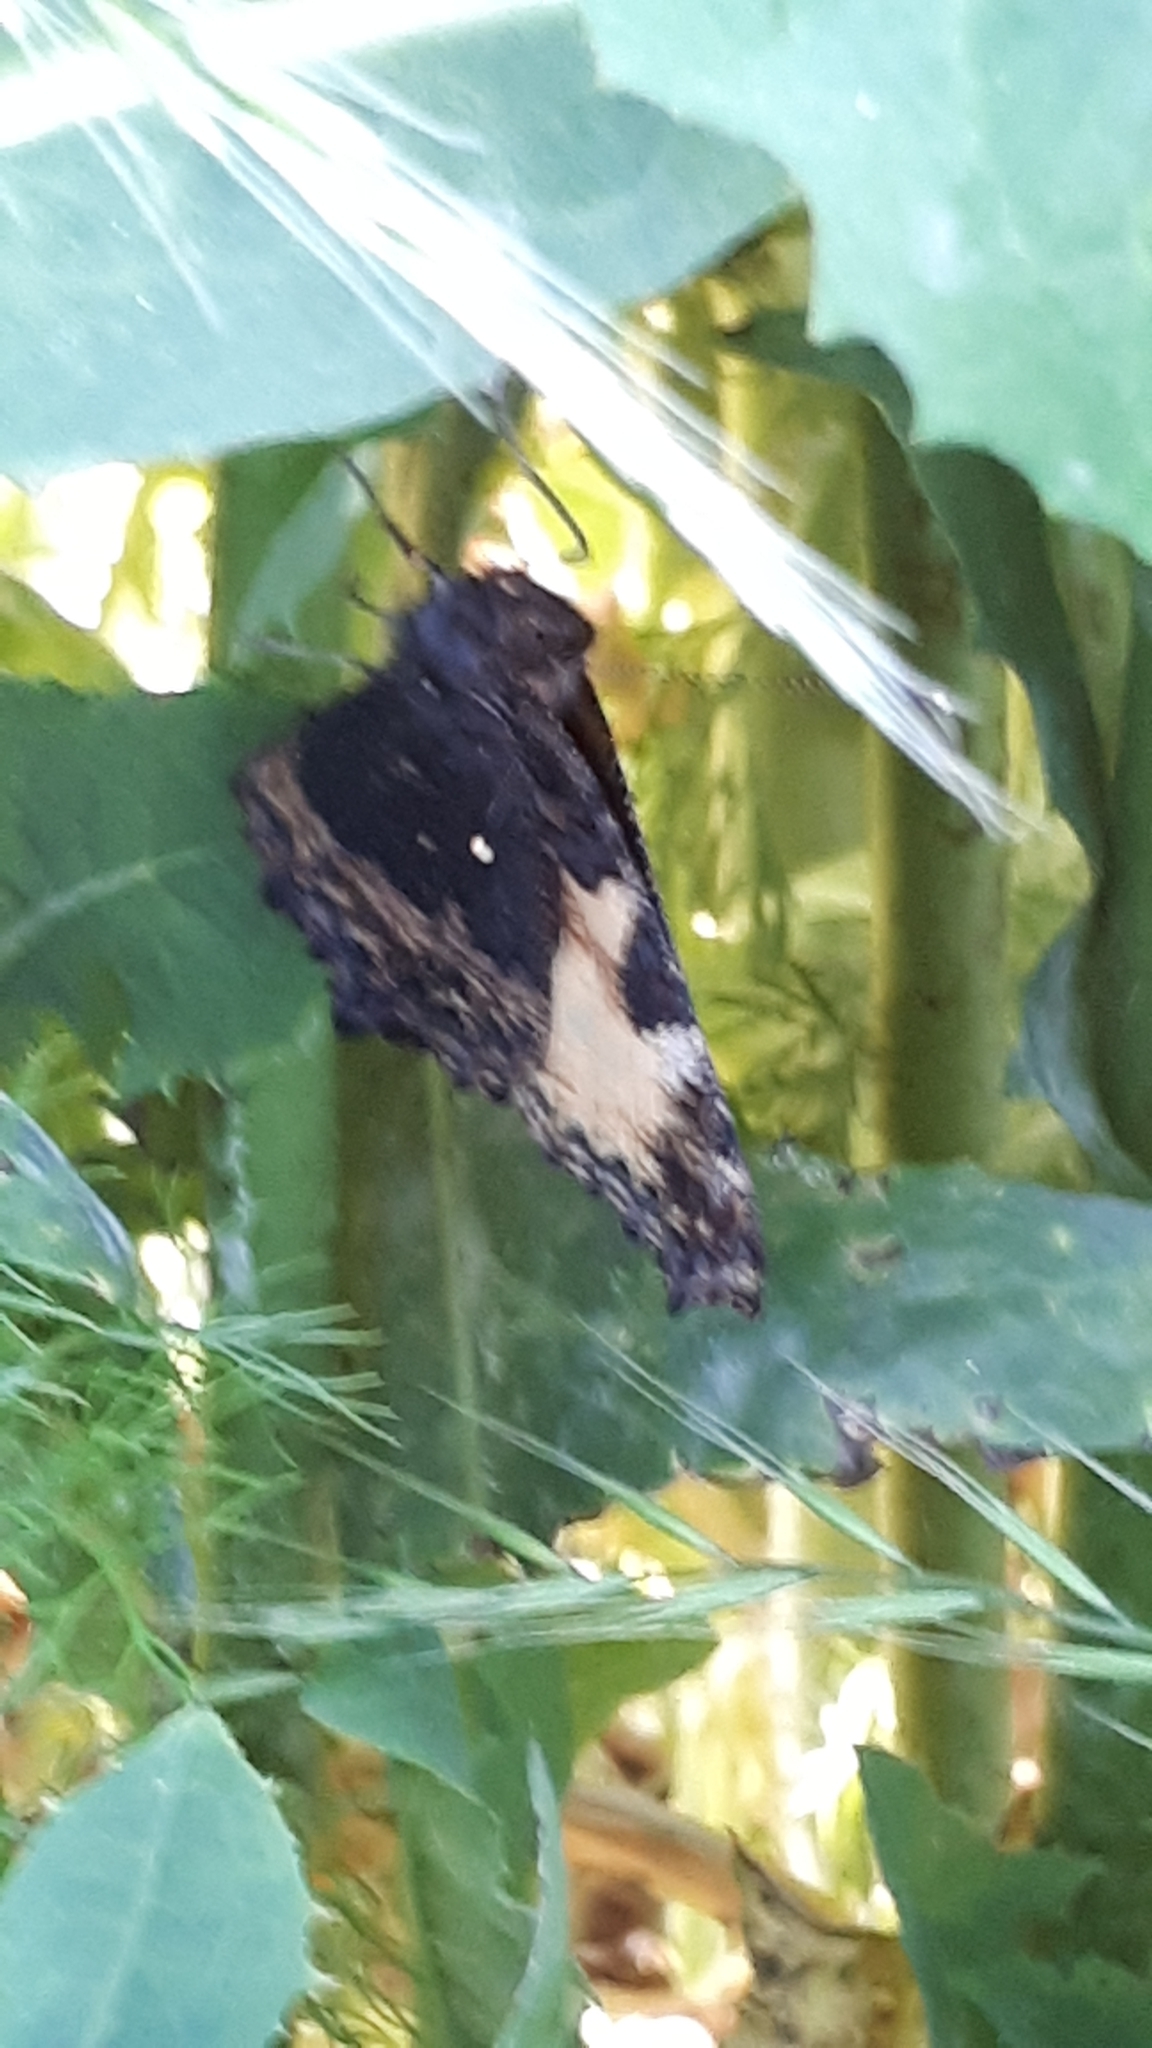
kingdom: Animalia
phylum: Arthropoda
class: Insecta
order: Lepidoptera
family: Nymphalidae
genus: Aglais
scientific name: Aglais urticae
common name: Small tortoiseshell
